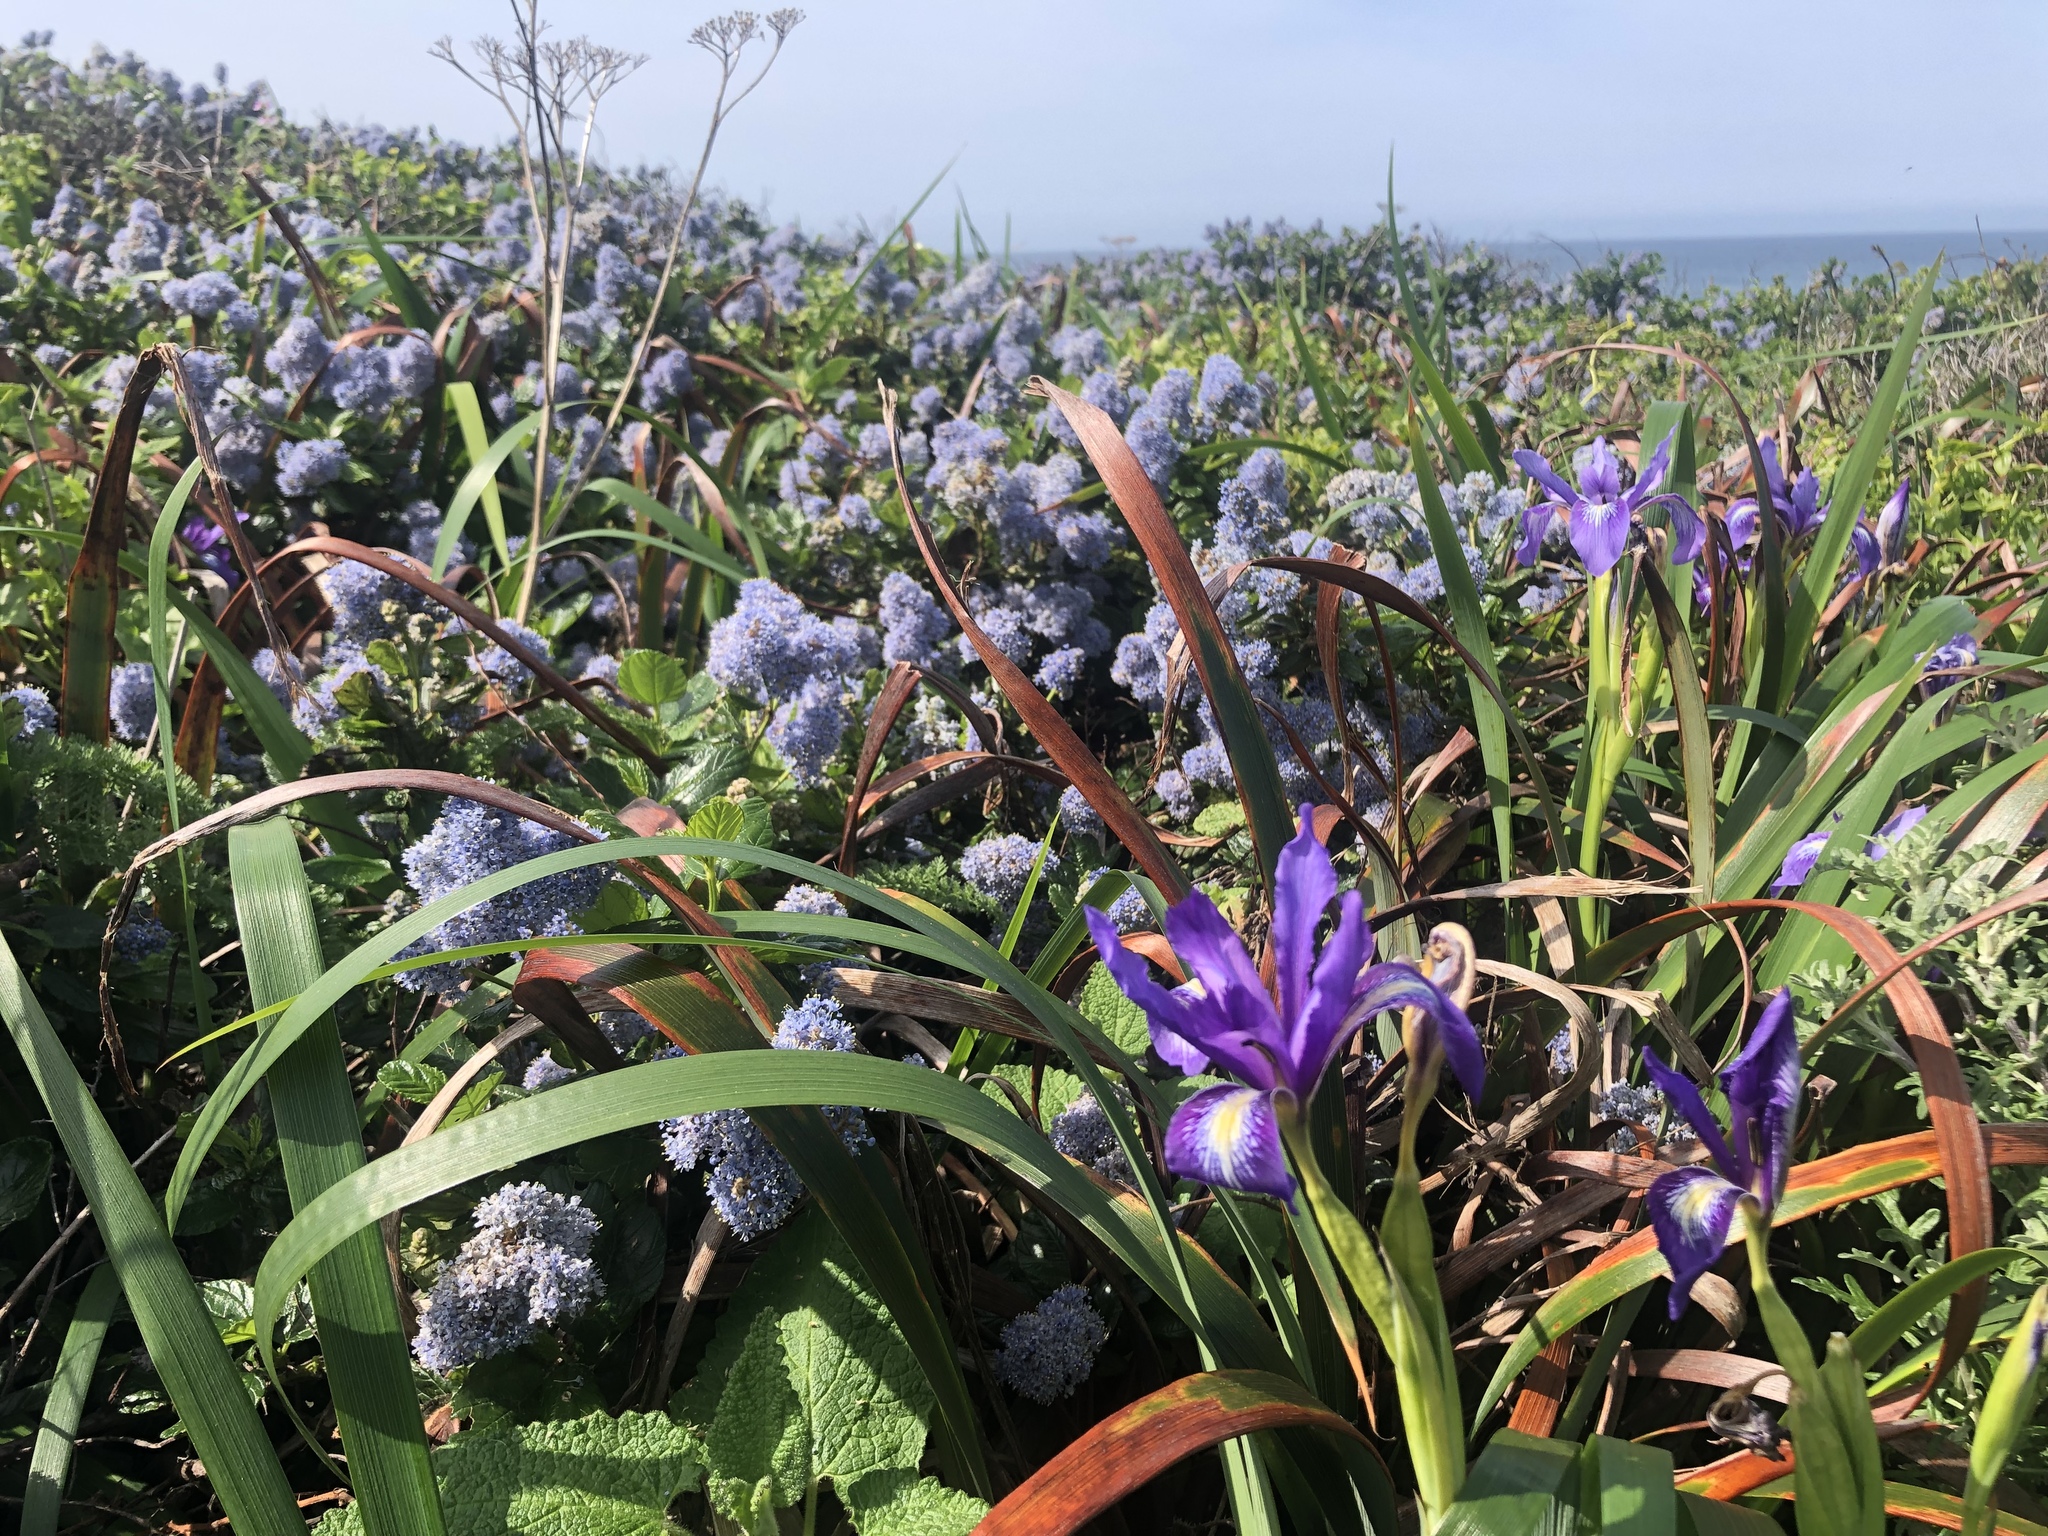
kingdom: Plantae
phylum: Tracheophyta
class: Liliopsida
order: Asparagales
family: Iridaceae
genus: Iris
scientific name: Iris douglasiana
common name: Marin iris
